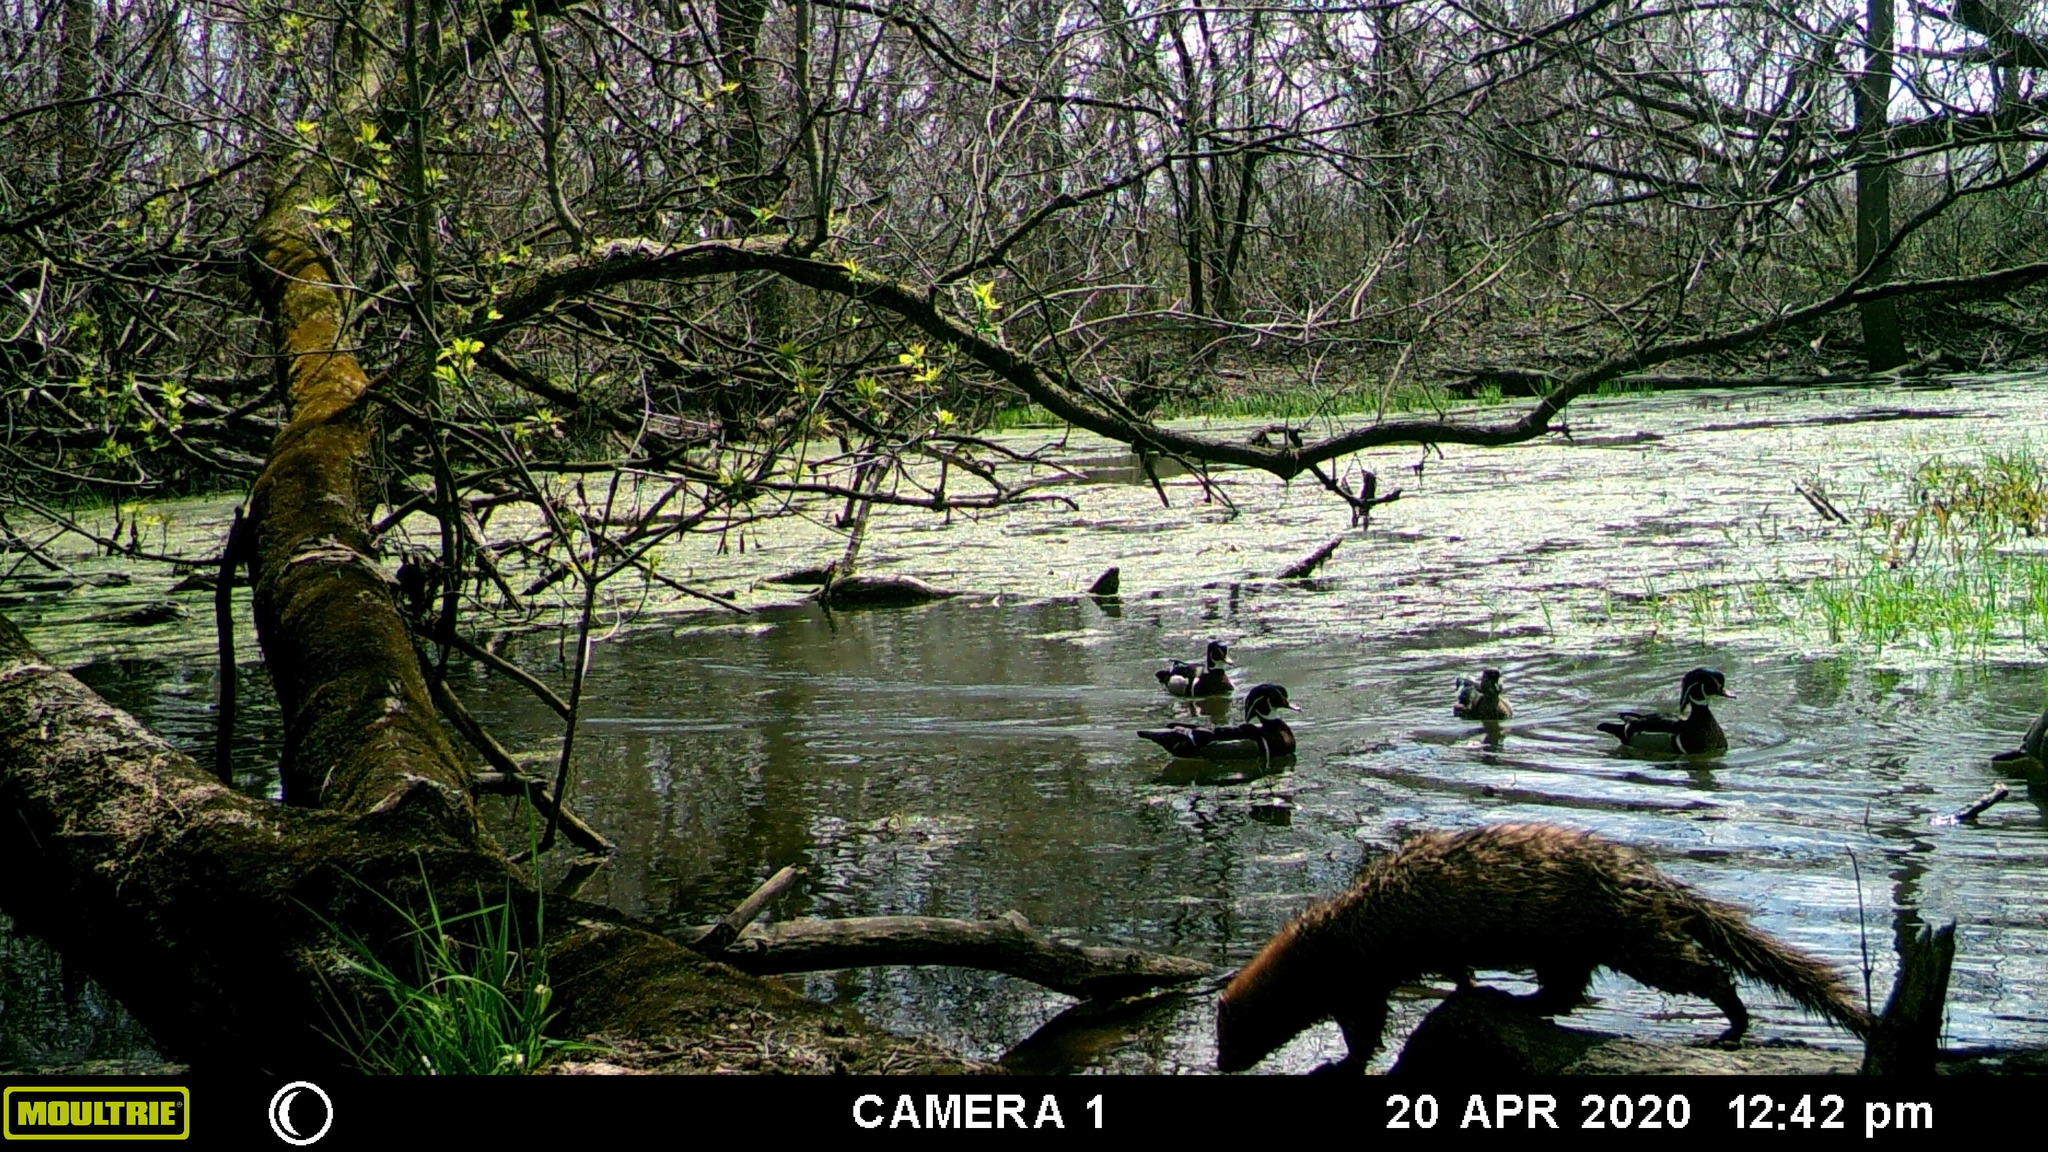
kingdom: Animalia
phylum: Chordata
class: Mammalia
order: Carnivora
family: Mustelidae
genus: Mustela
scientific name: Mustela
